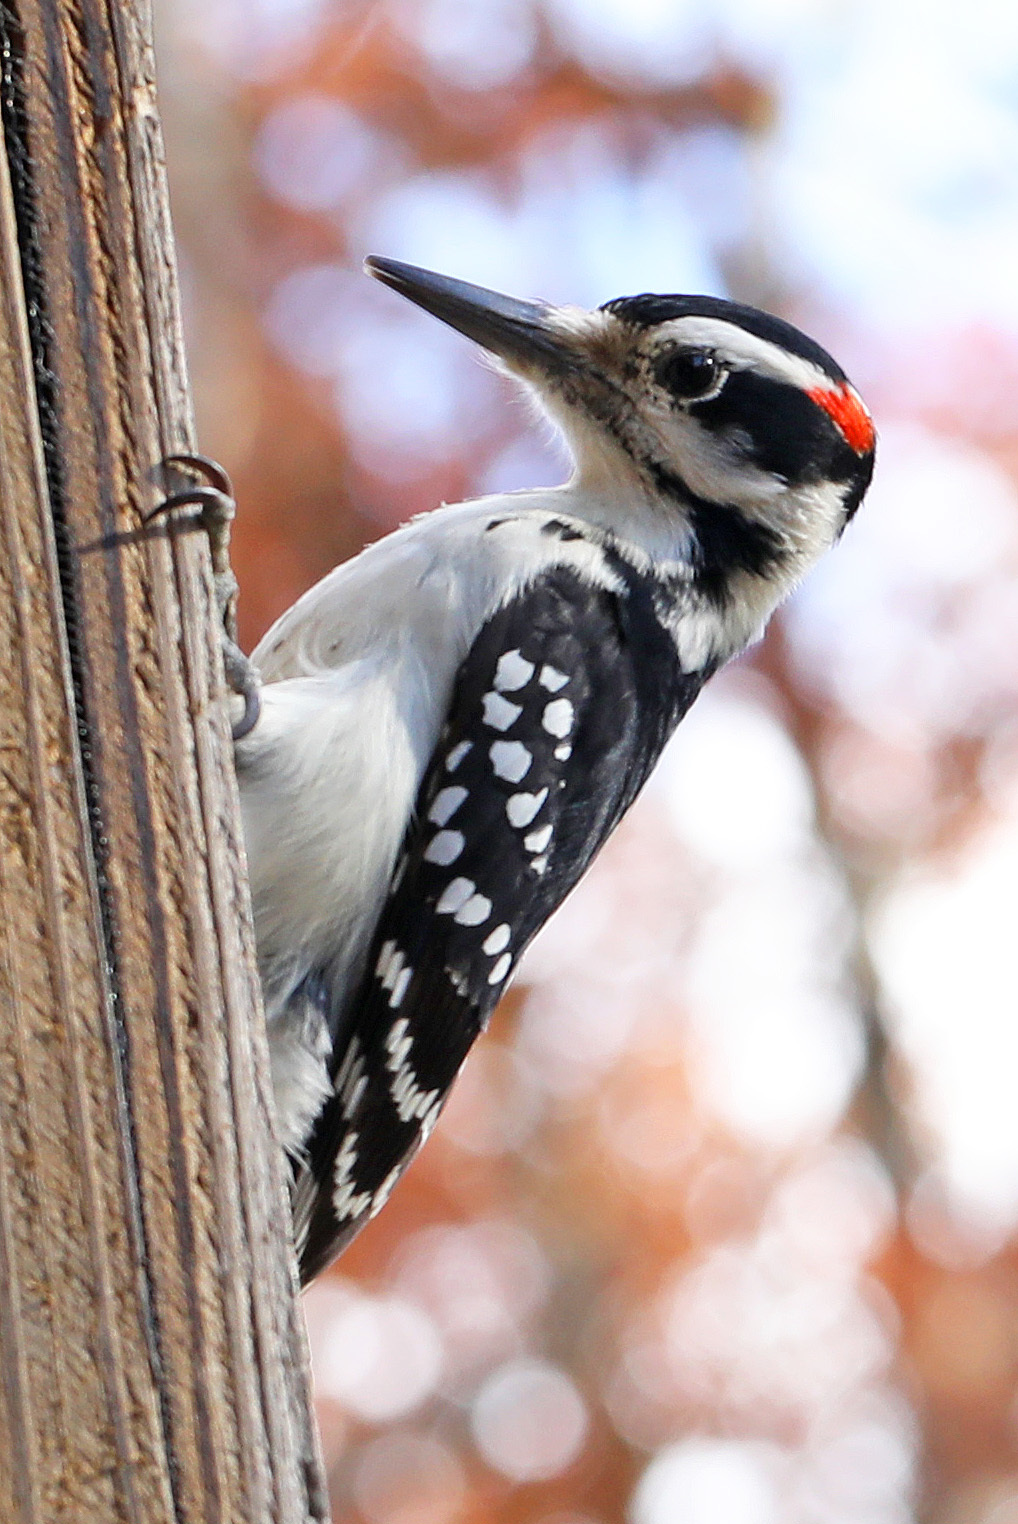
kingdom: Animalia
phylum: Chordata
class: Aves
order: Piciformes
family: Picidae
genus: Leuconotopicus
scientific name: Leuconotopicus villosus
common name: Hairy woodpecker
